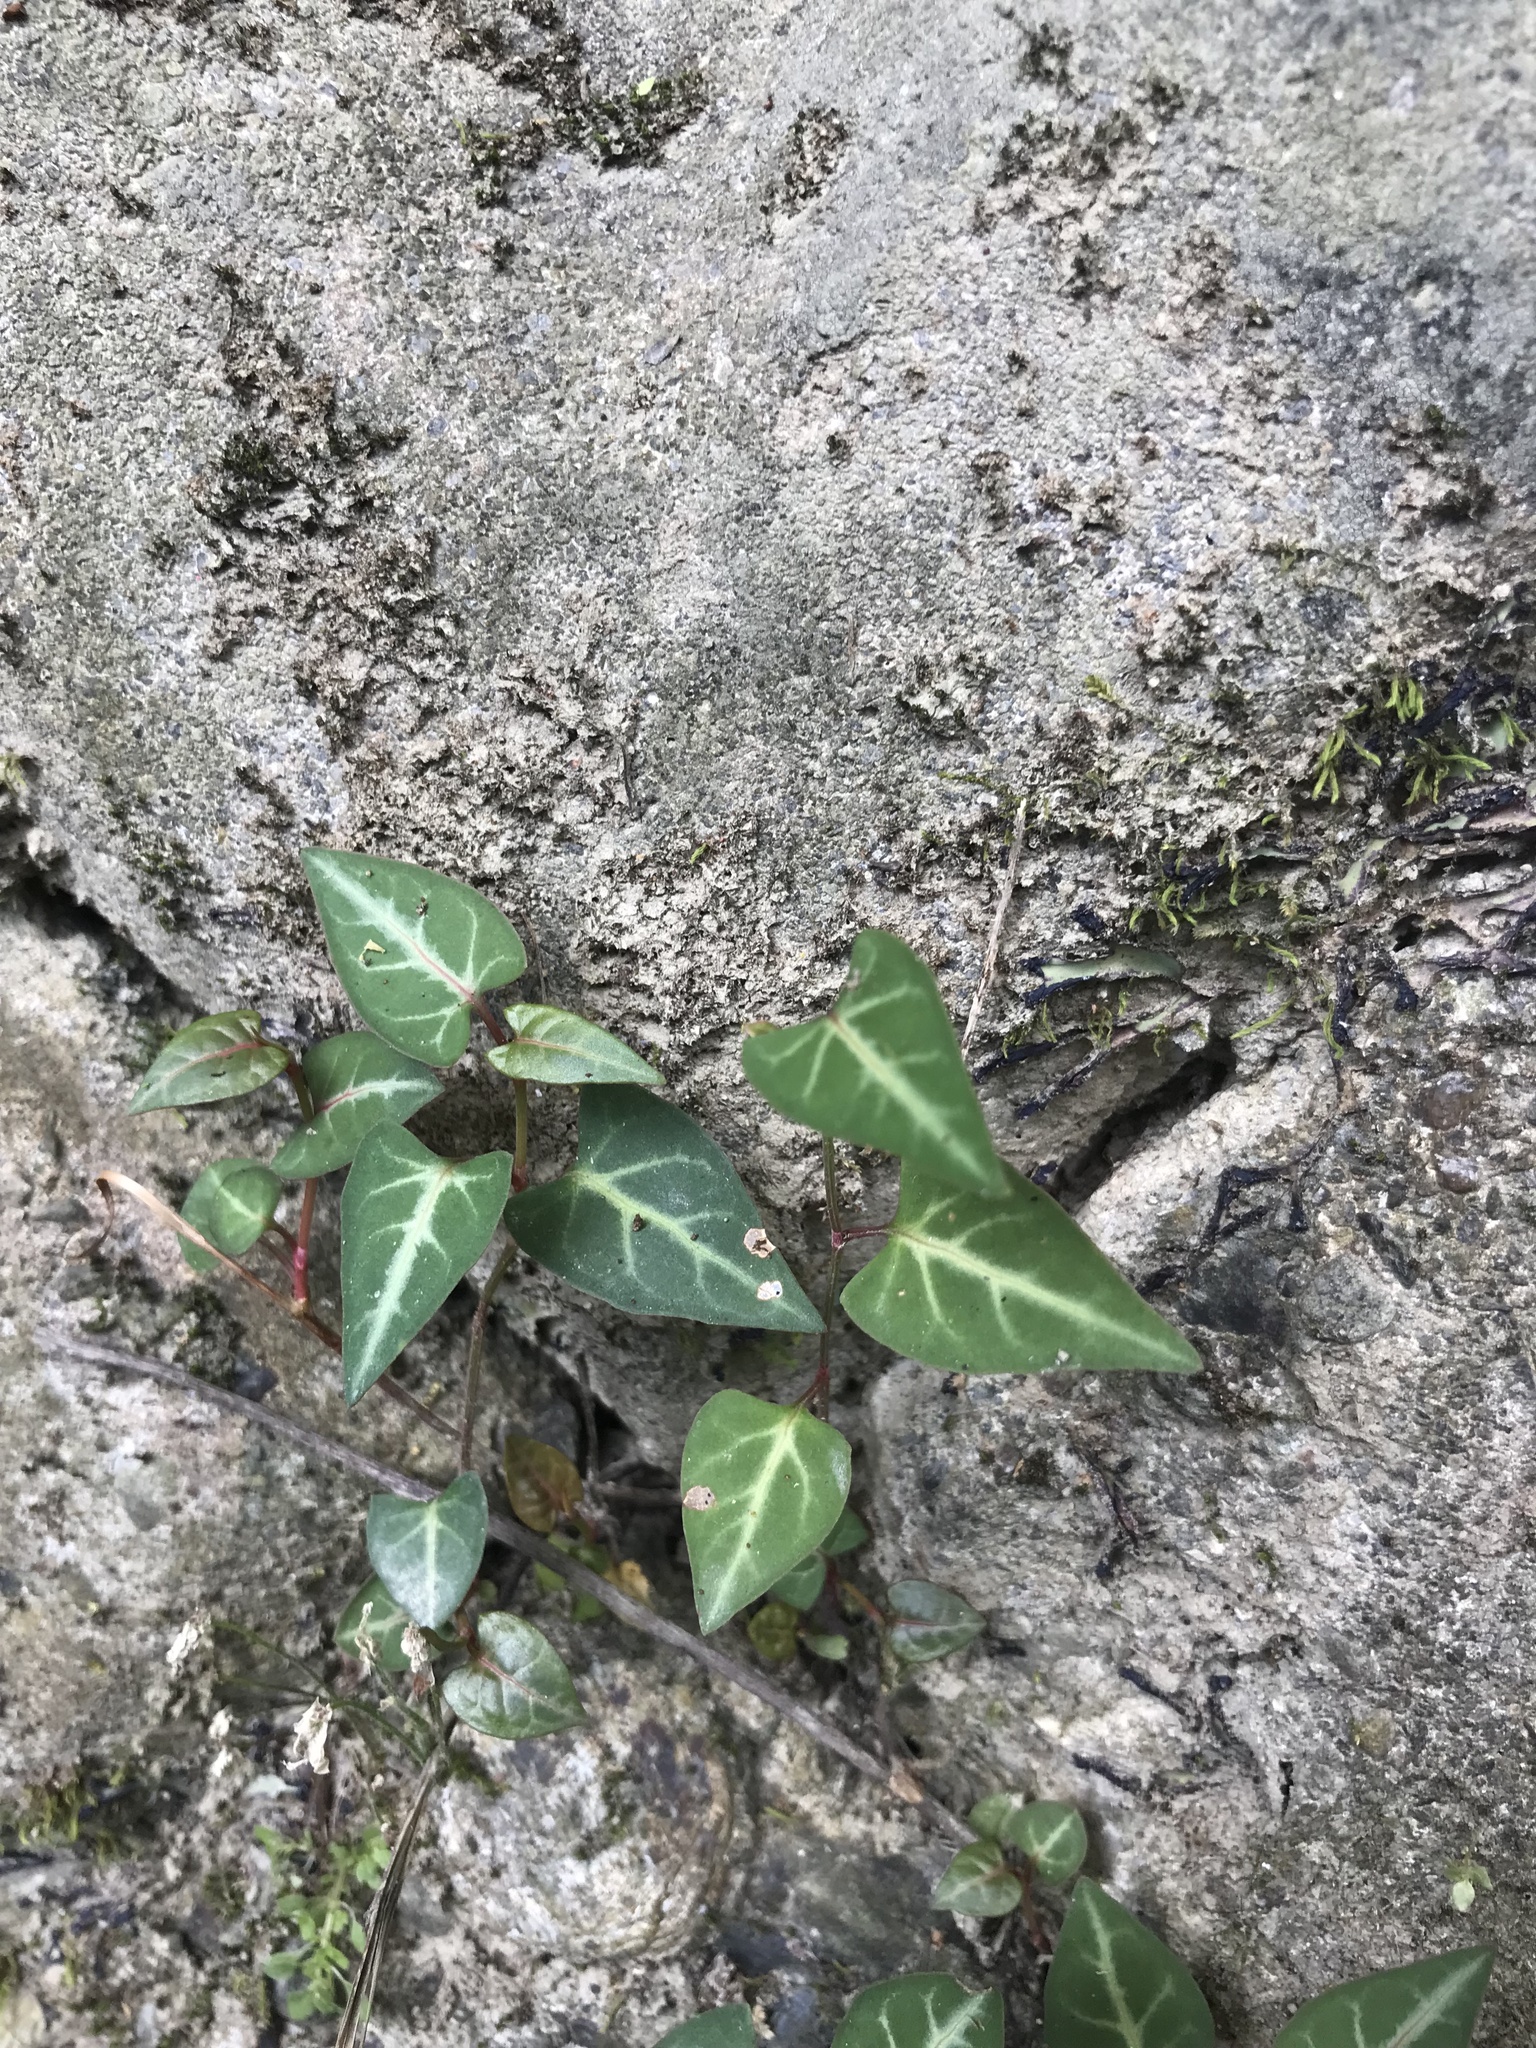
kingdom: Plantae
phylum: Tracheophyta
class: Magnoliopsida
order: Caryophyllales
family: Polygonaceae
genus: Reynoutria
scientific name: Reynoutria multiflora
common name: Chinese fleeceflower
